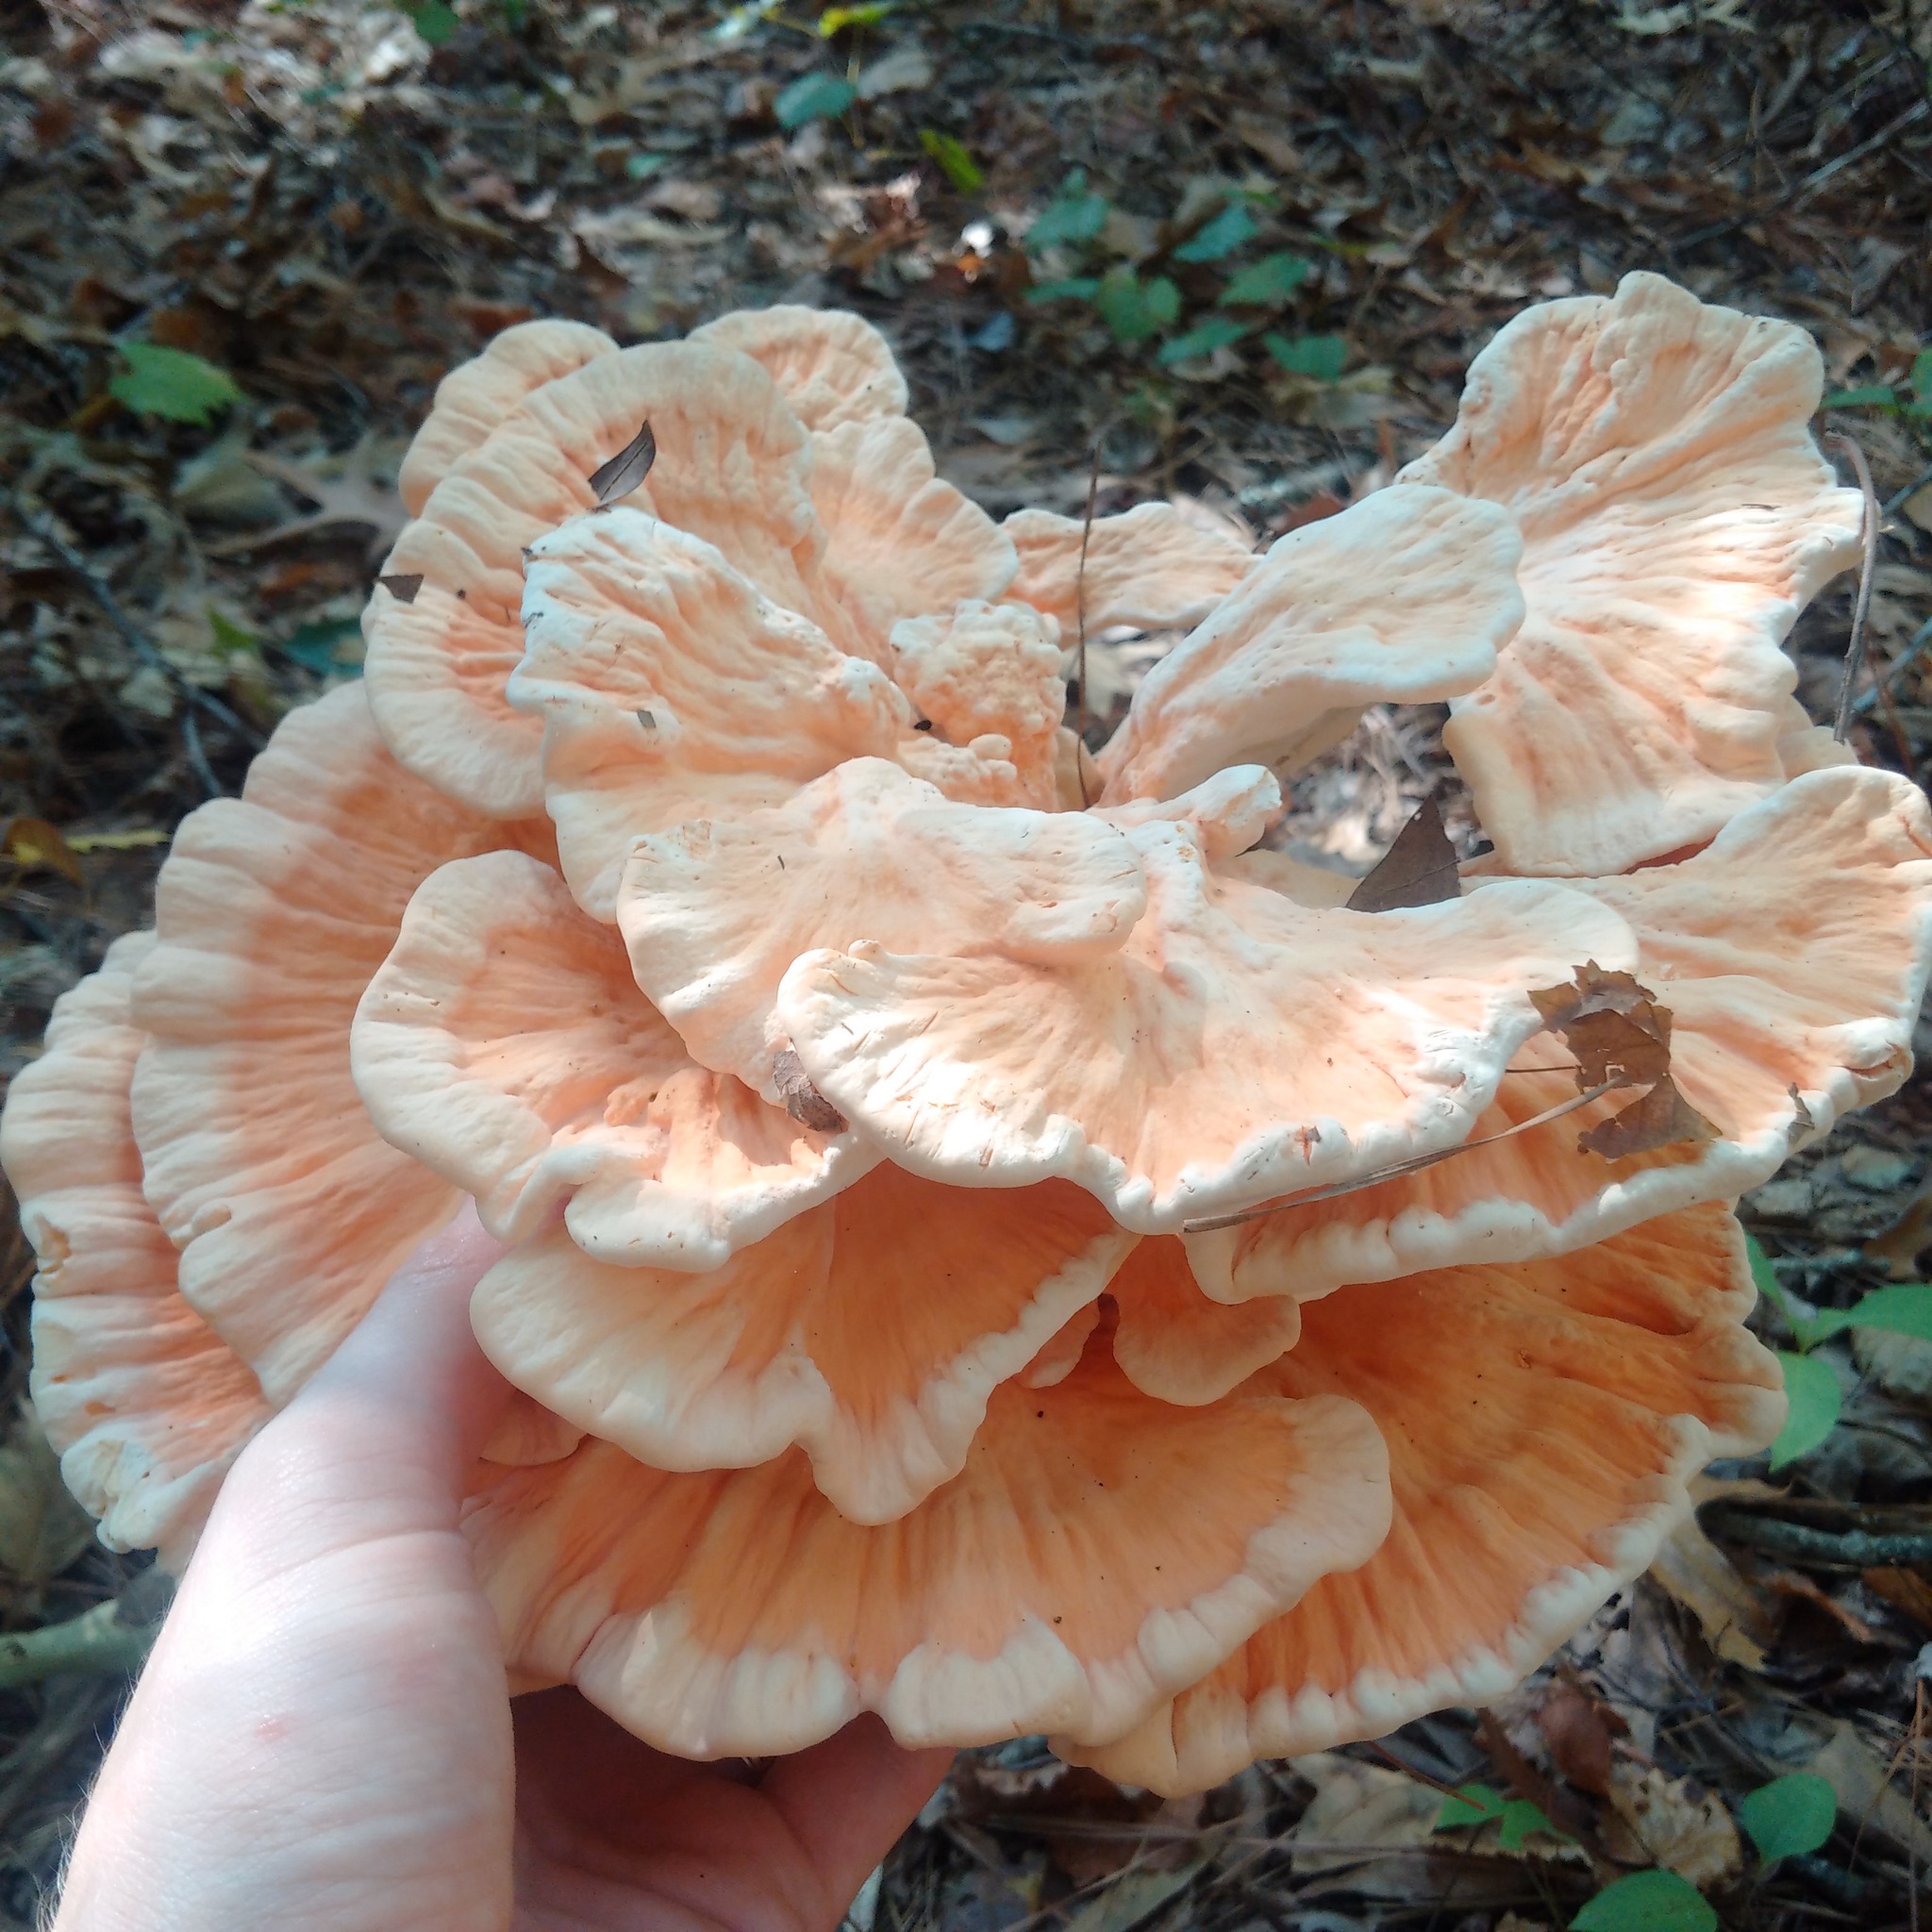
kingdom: Fungi
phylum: Basidiomycota
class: Agaricomycetes
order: Polyporales
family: Laetiporaceae
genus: Laetiporus
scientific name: Laetiporus sulphureus
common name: Chicken of the woods
